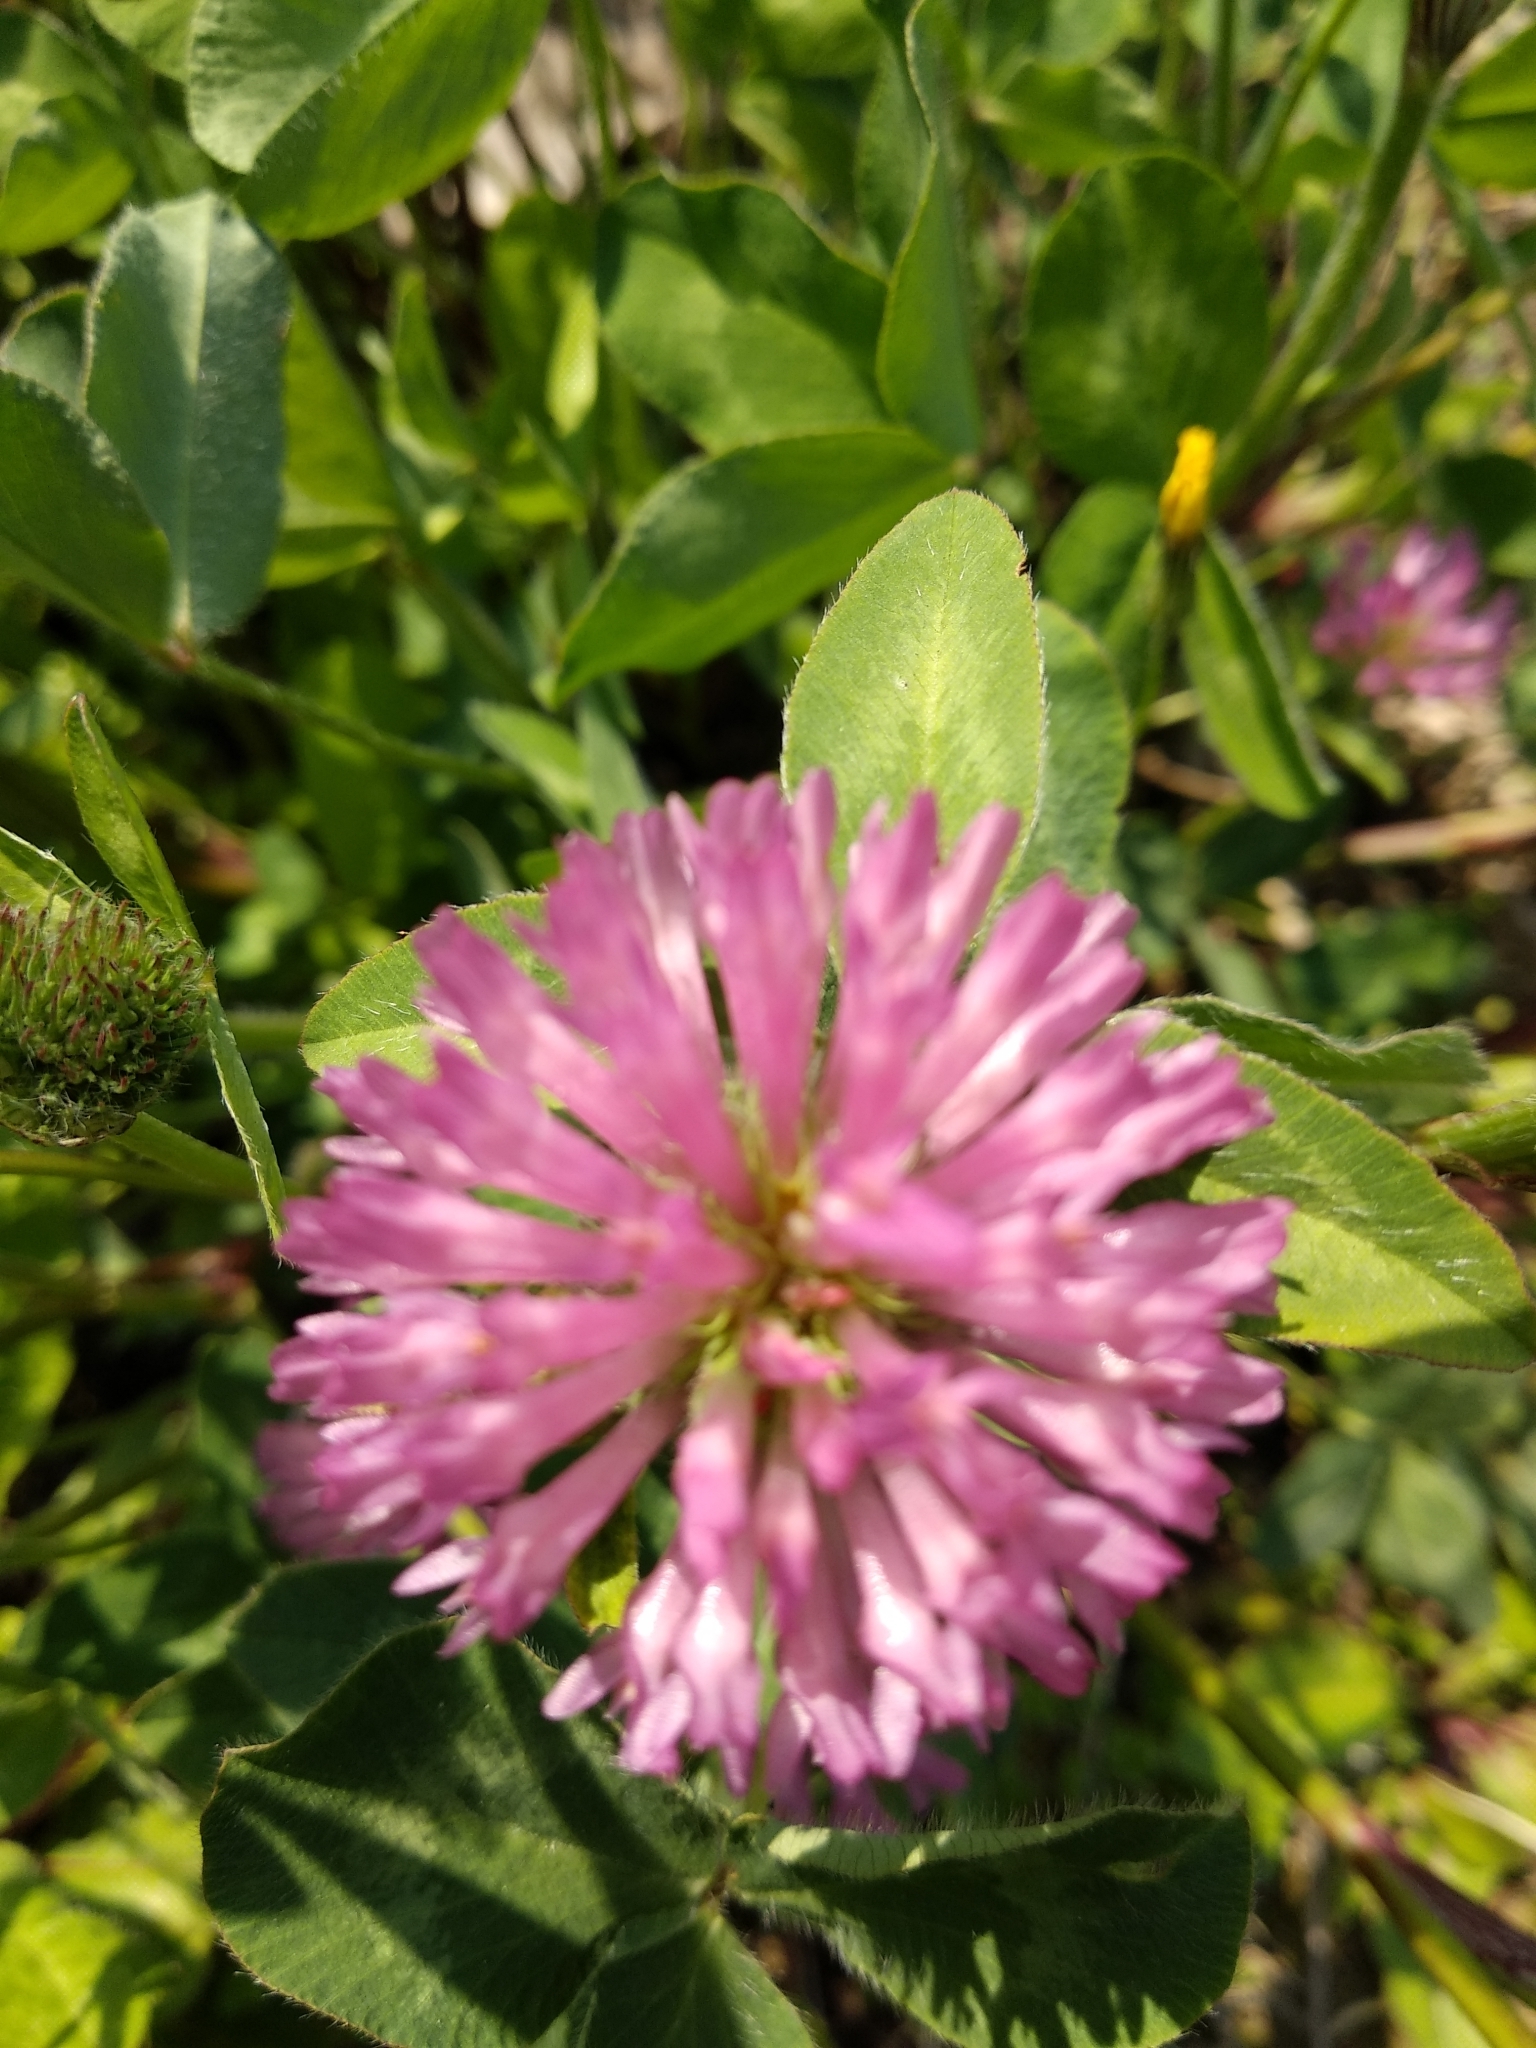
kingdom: Plantae
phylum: Tracheophyta
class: Magnoliopsida
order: Fabales
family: Fabaceae
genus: Trifolium
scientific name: Trifolium pratense
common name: Red clover
